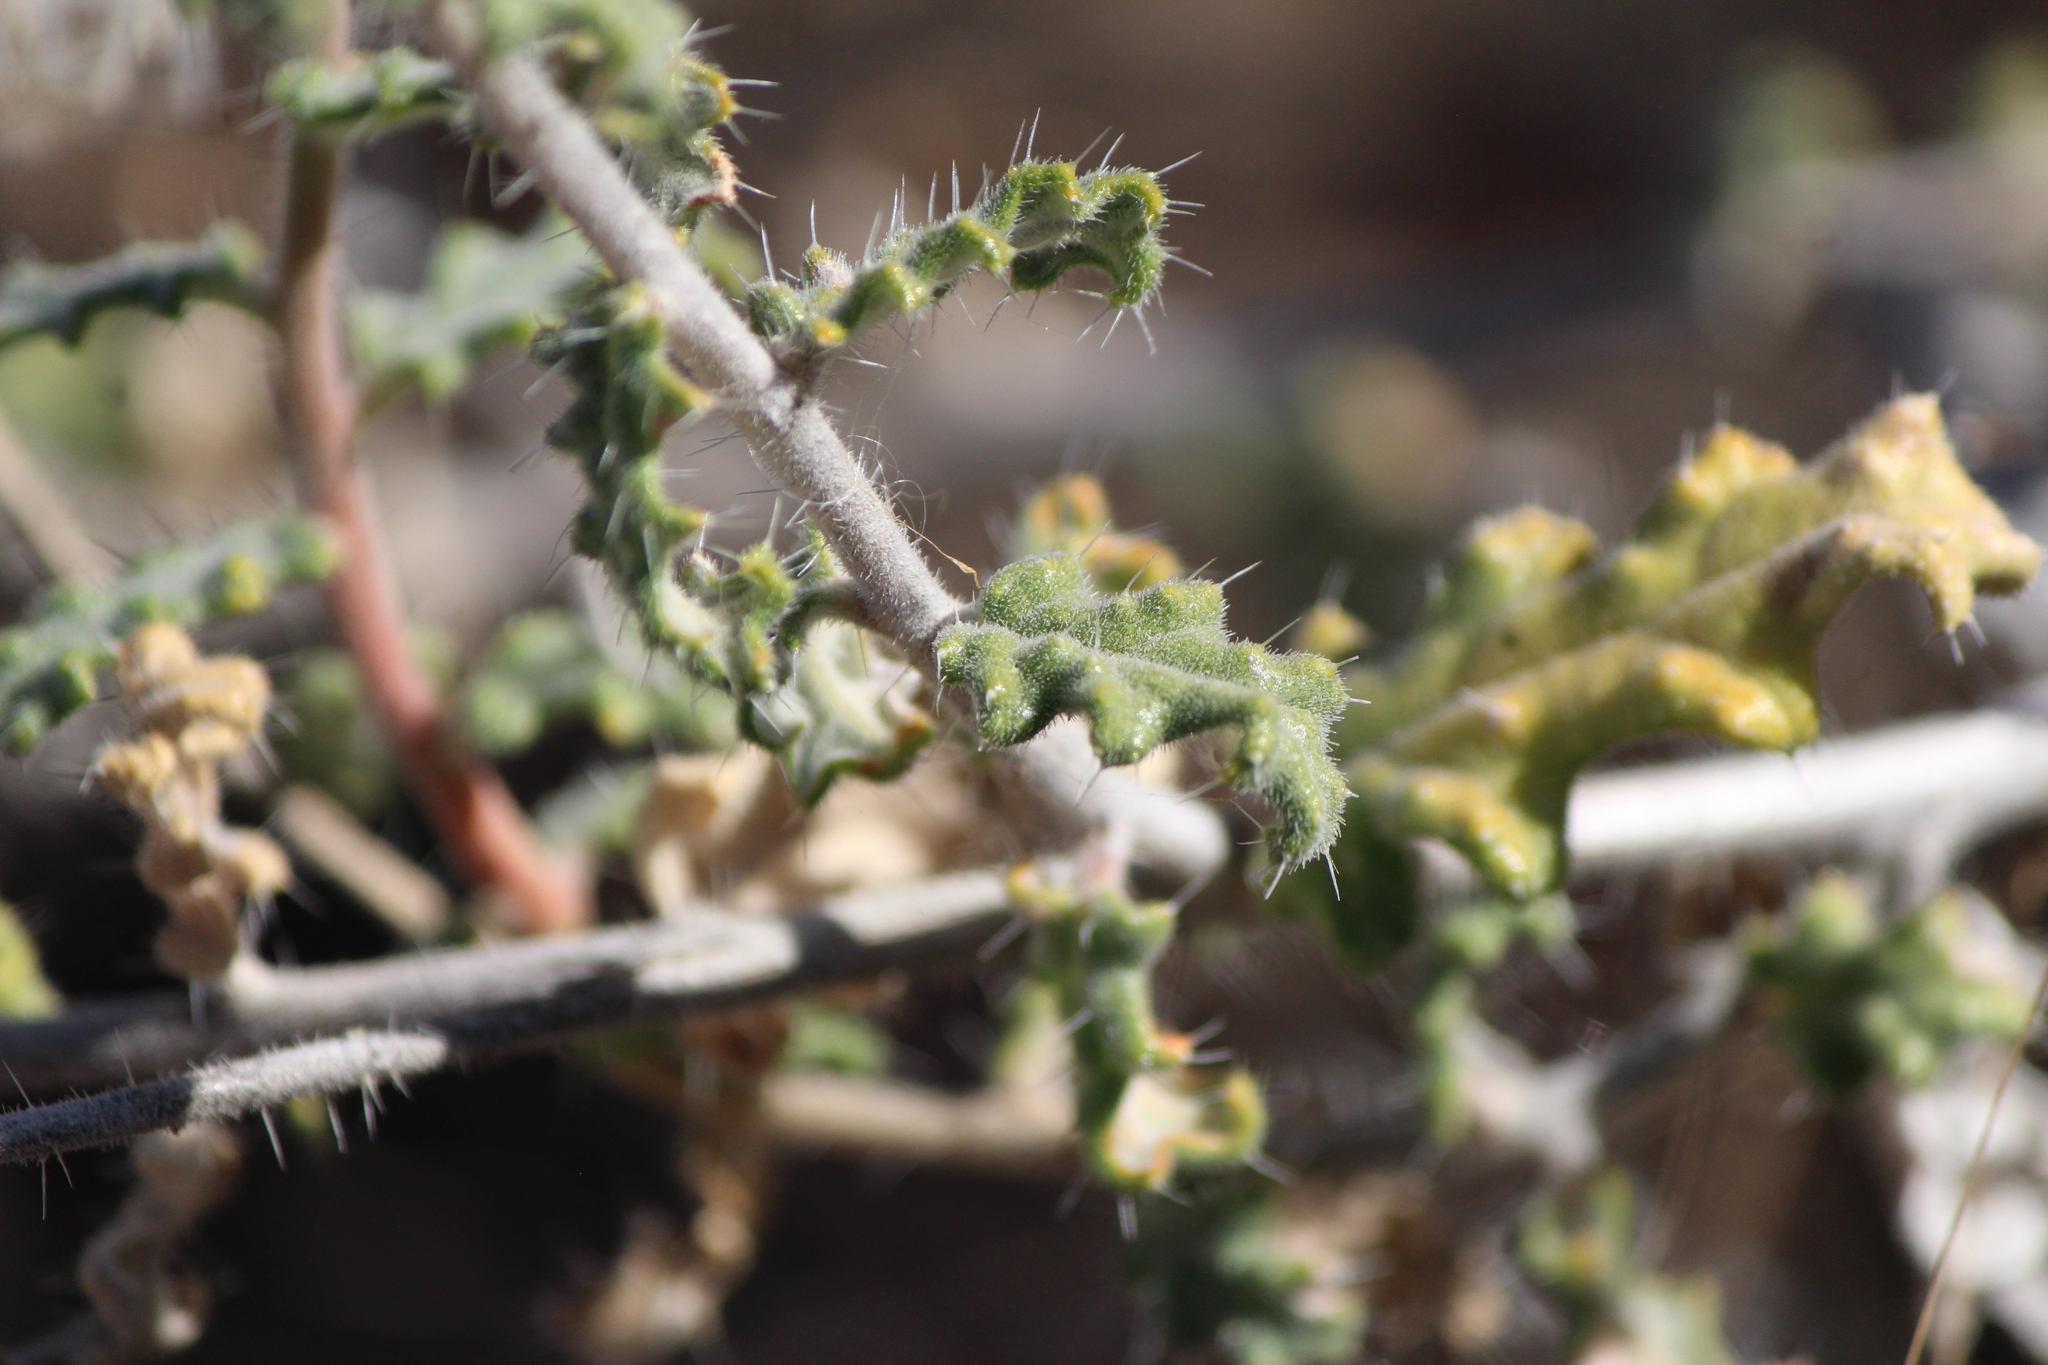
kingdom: Plantae
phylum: Tracheophyta
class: Magnoliopsida
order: Cornales
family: Loasaceae
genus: Cevallia
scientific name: Cevallia sinuata
